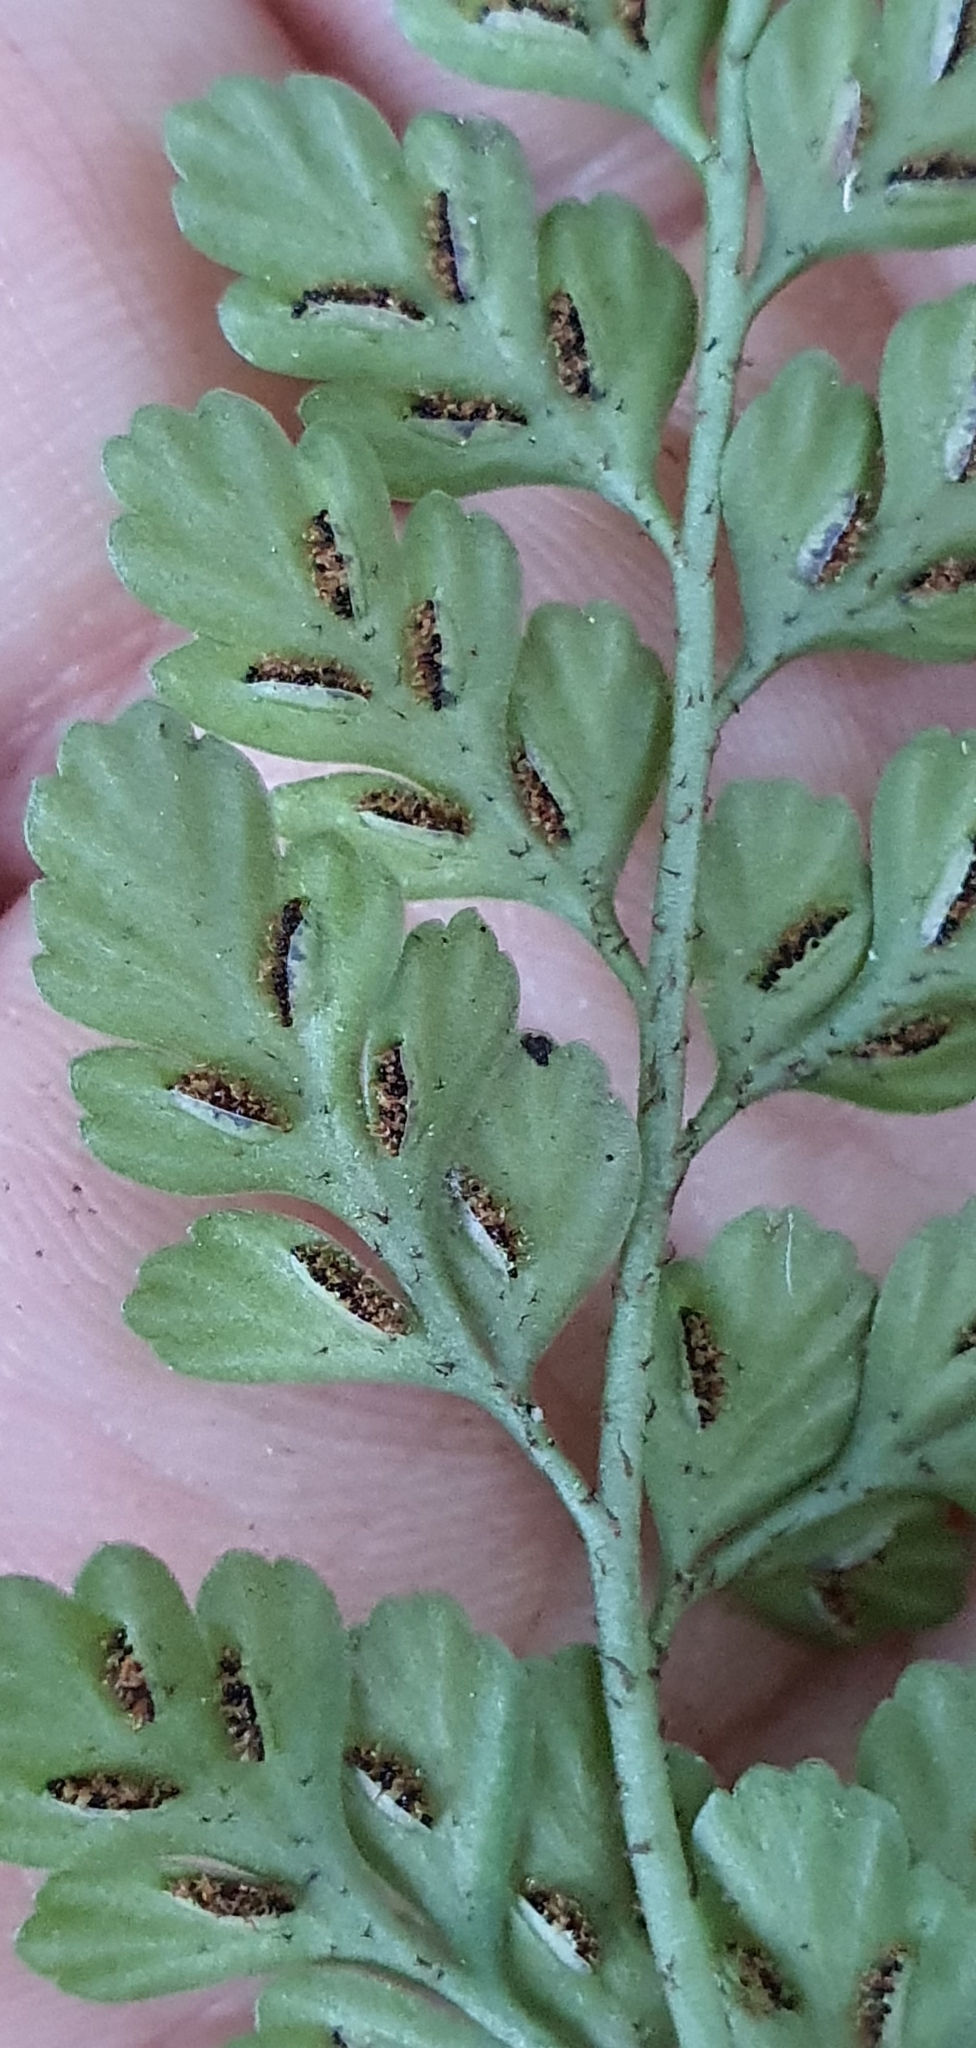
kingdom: Plantae
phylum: Tracheophyta
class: Polypodiopsida
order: Polypodiales
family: Aspleniaceae
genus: Asplenium
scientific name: Asplenium hookerianum
